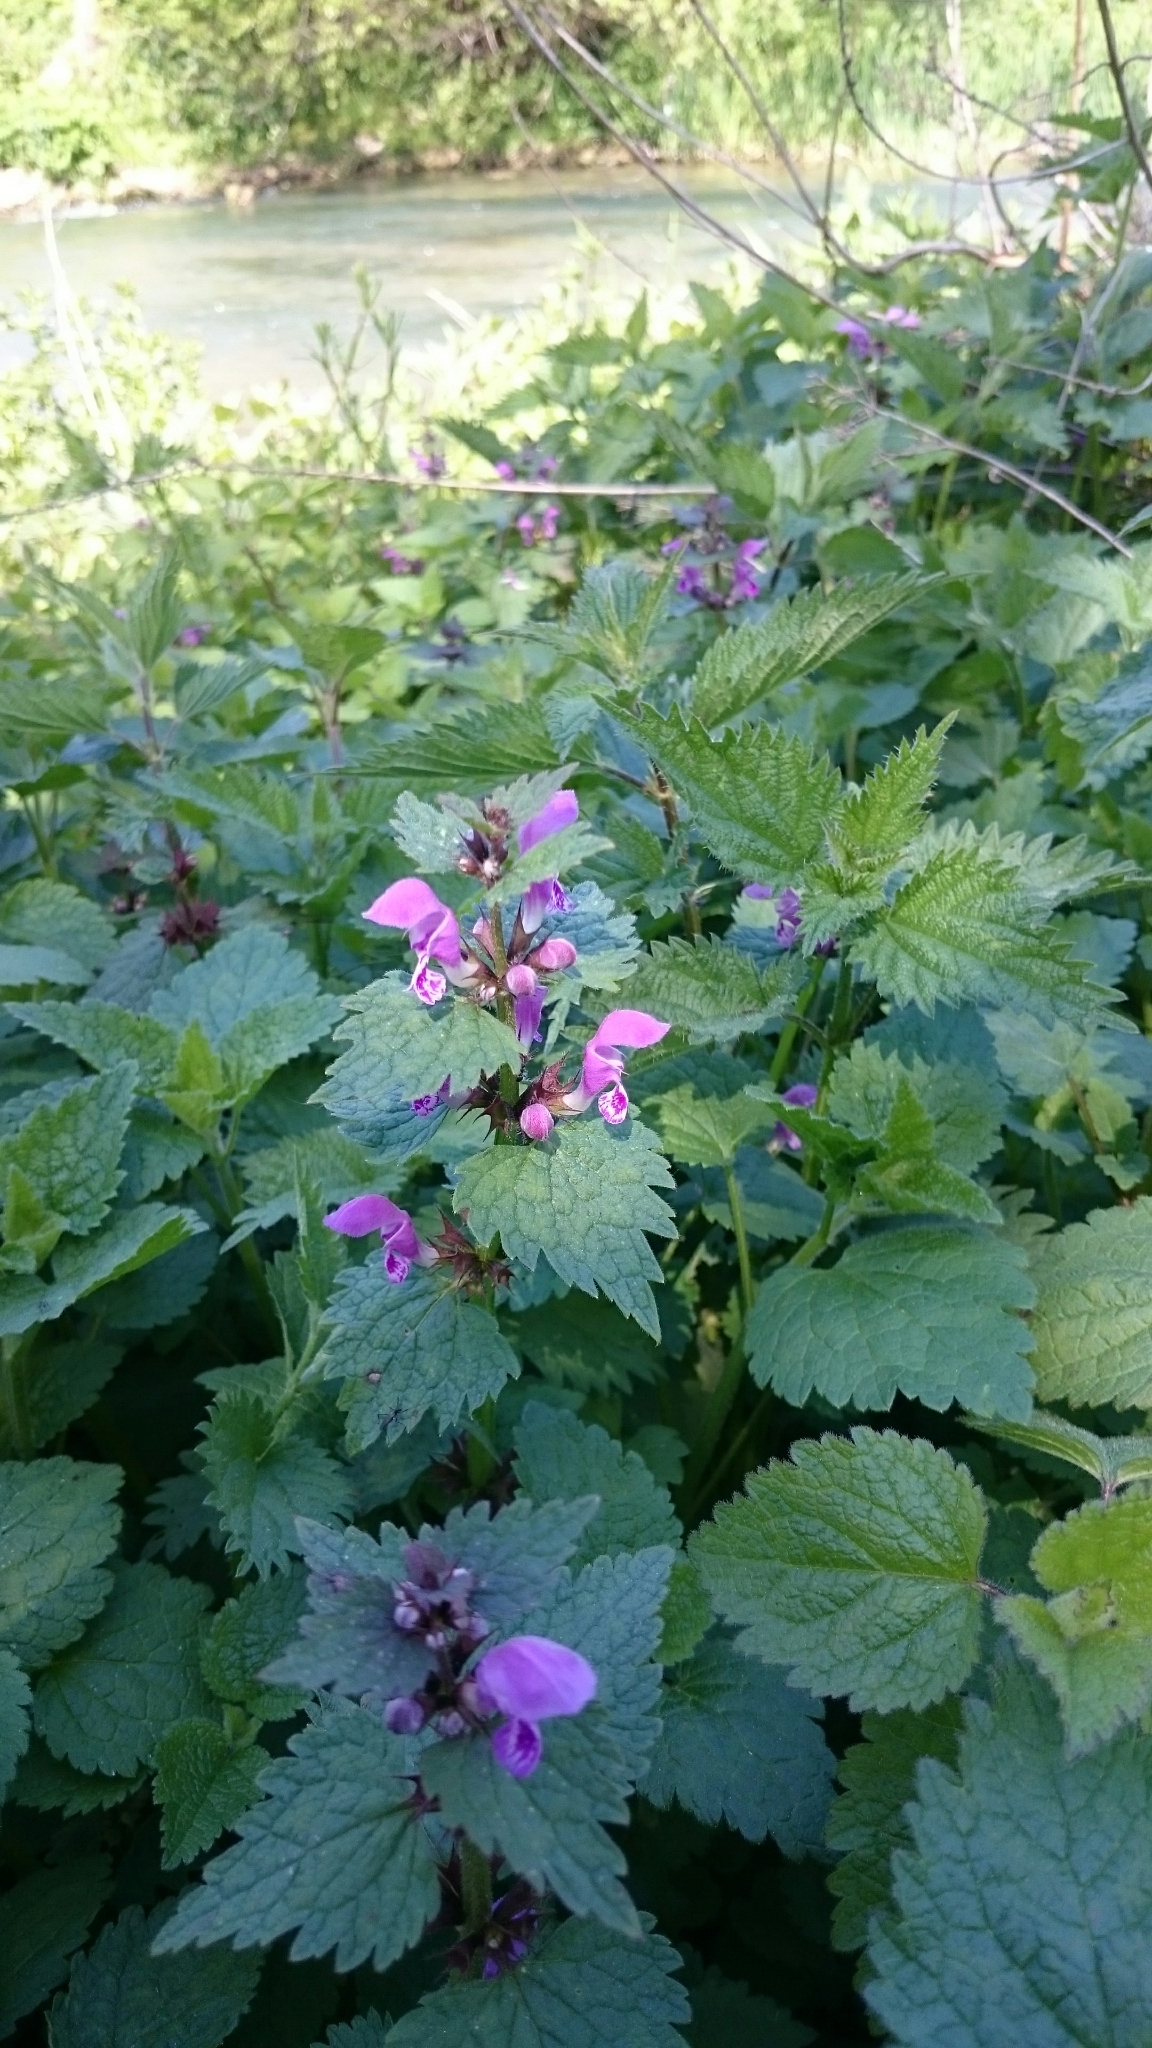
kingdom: Plantae
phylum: Tracheophyta
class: Magnoliopsida
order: Lamiales
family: Lamiaceae
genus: Lamium
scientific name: Lamium maculatum
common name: Spotted dead-nettle
